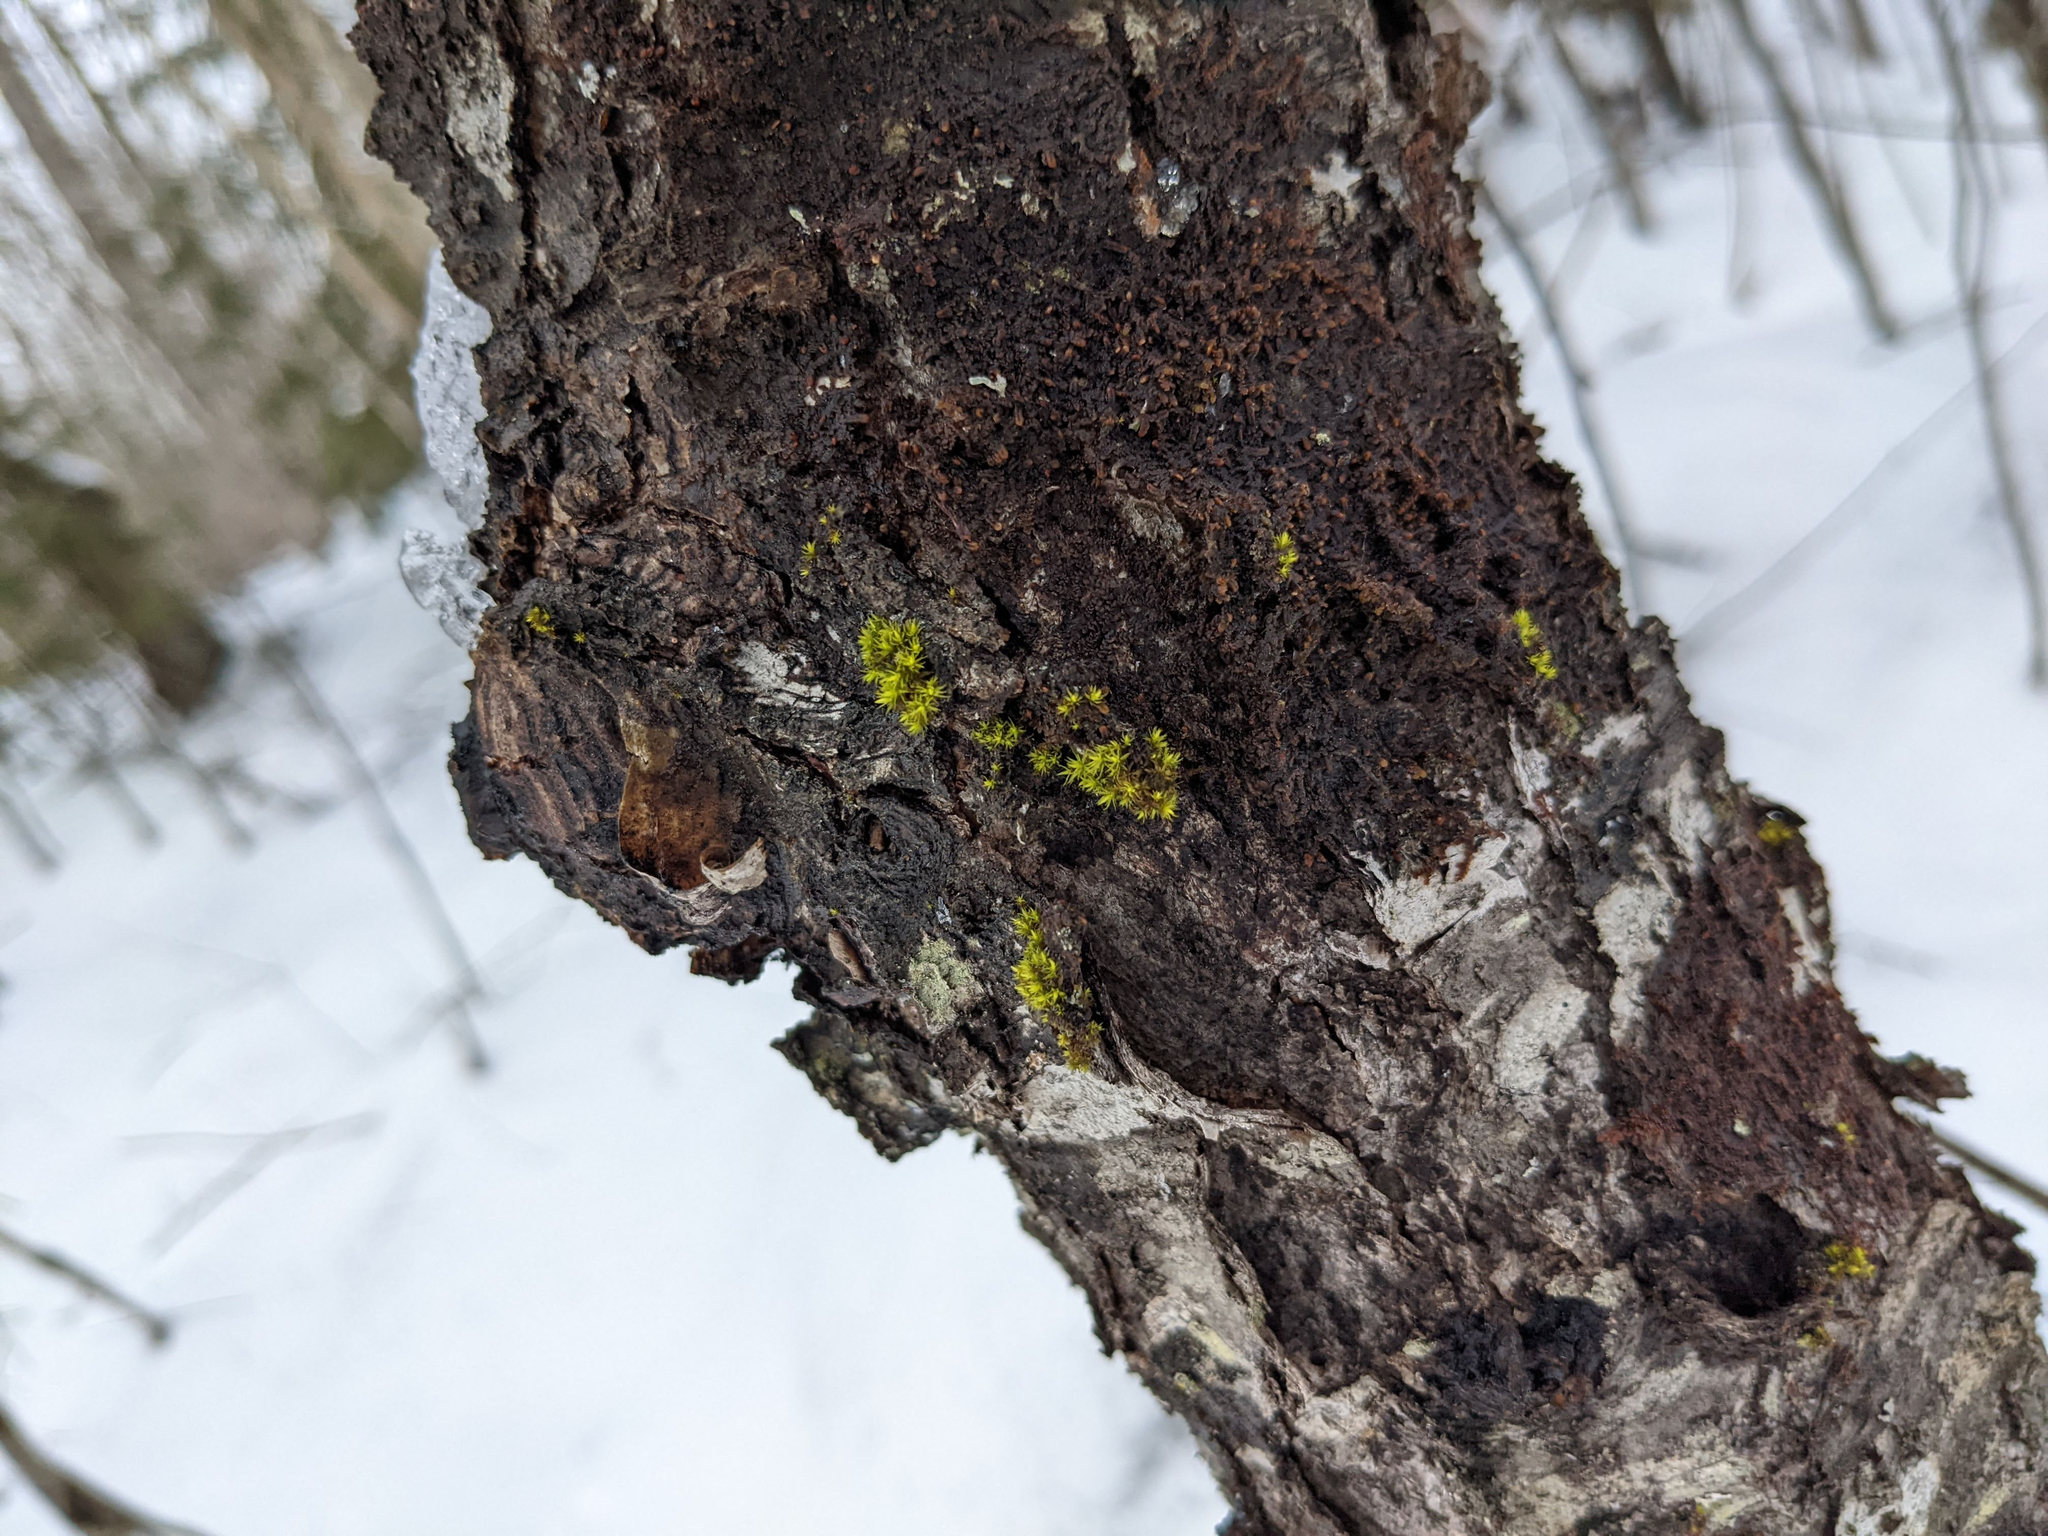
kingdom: Plantae
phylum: Bryophyta
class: Bryopsida
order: Orthotrichales
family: Orthotrichaceae
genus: Ulota
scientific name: Ulota crispa
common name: Crisped pincushion moss
